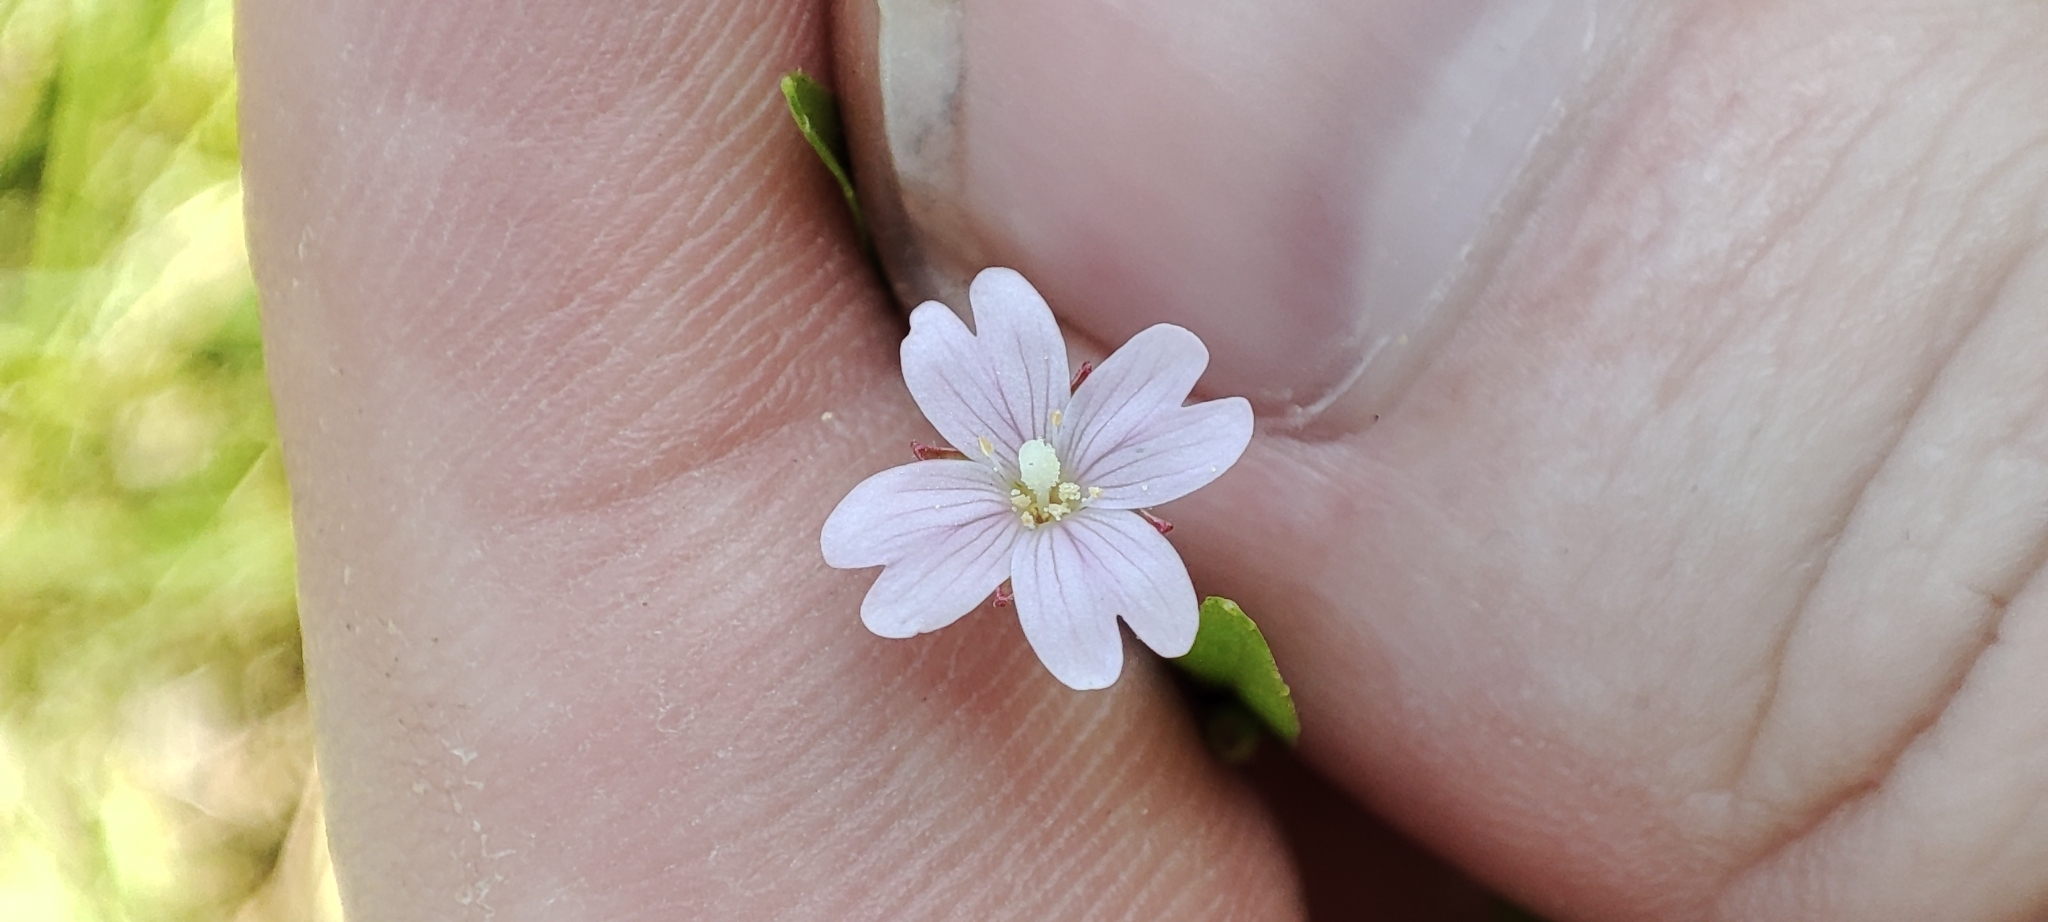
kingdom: Plantae
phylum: Tracheophyta
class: Magnoliopsida
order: Myrtales
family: Onagraceae
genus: Epilobium
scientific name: Epilobium palustre
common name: Marsh willowherb
